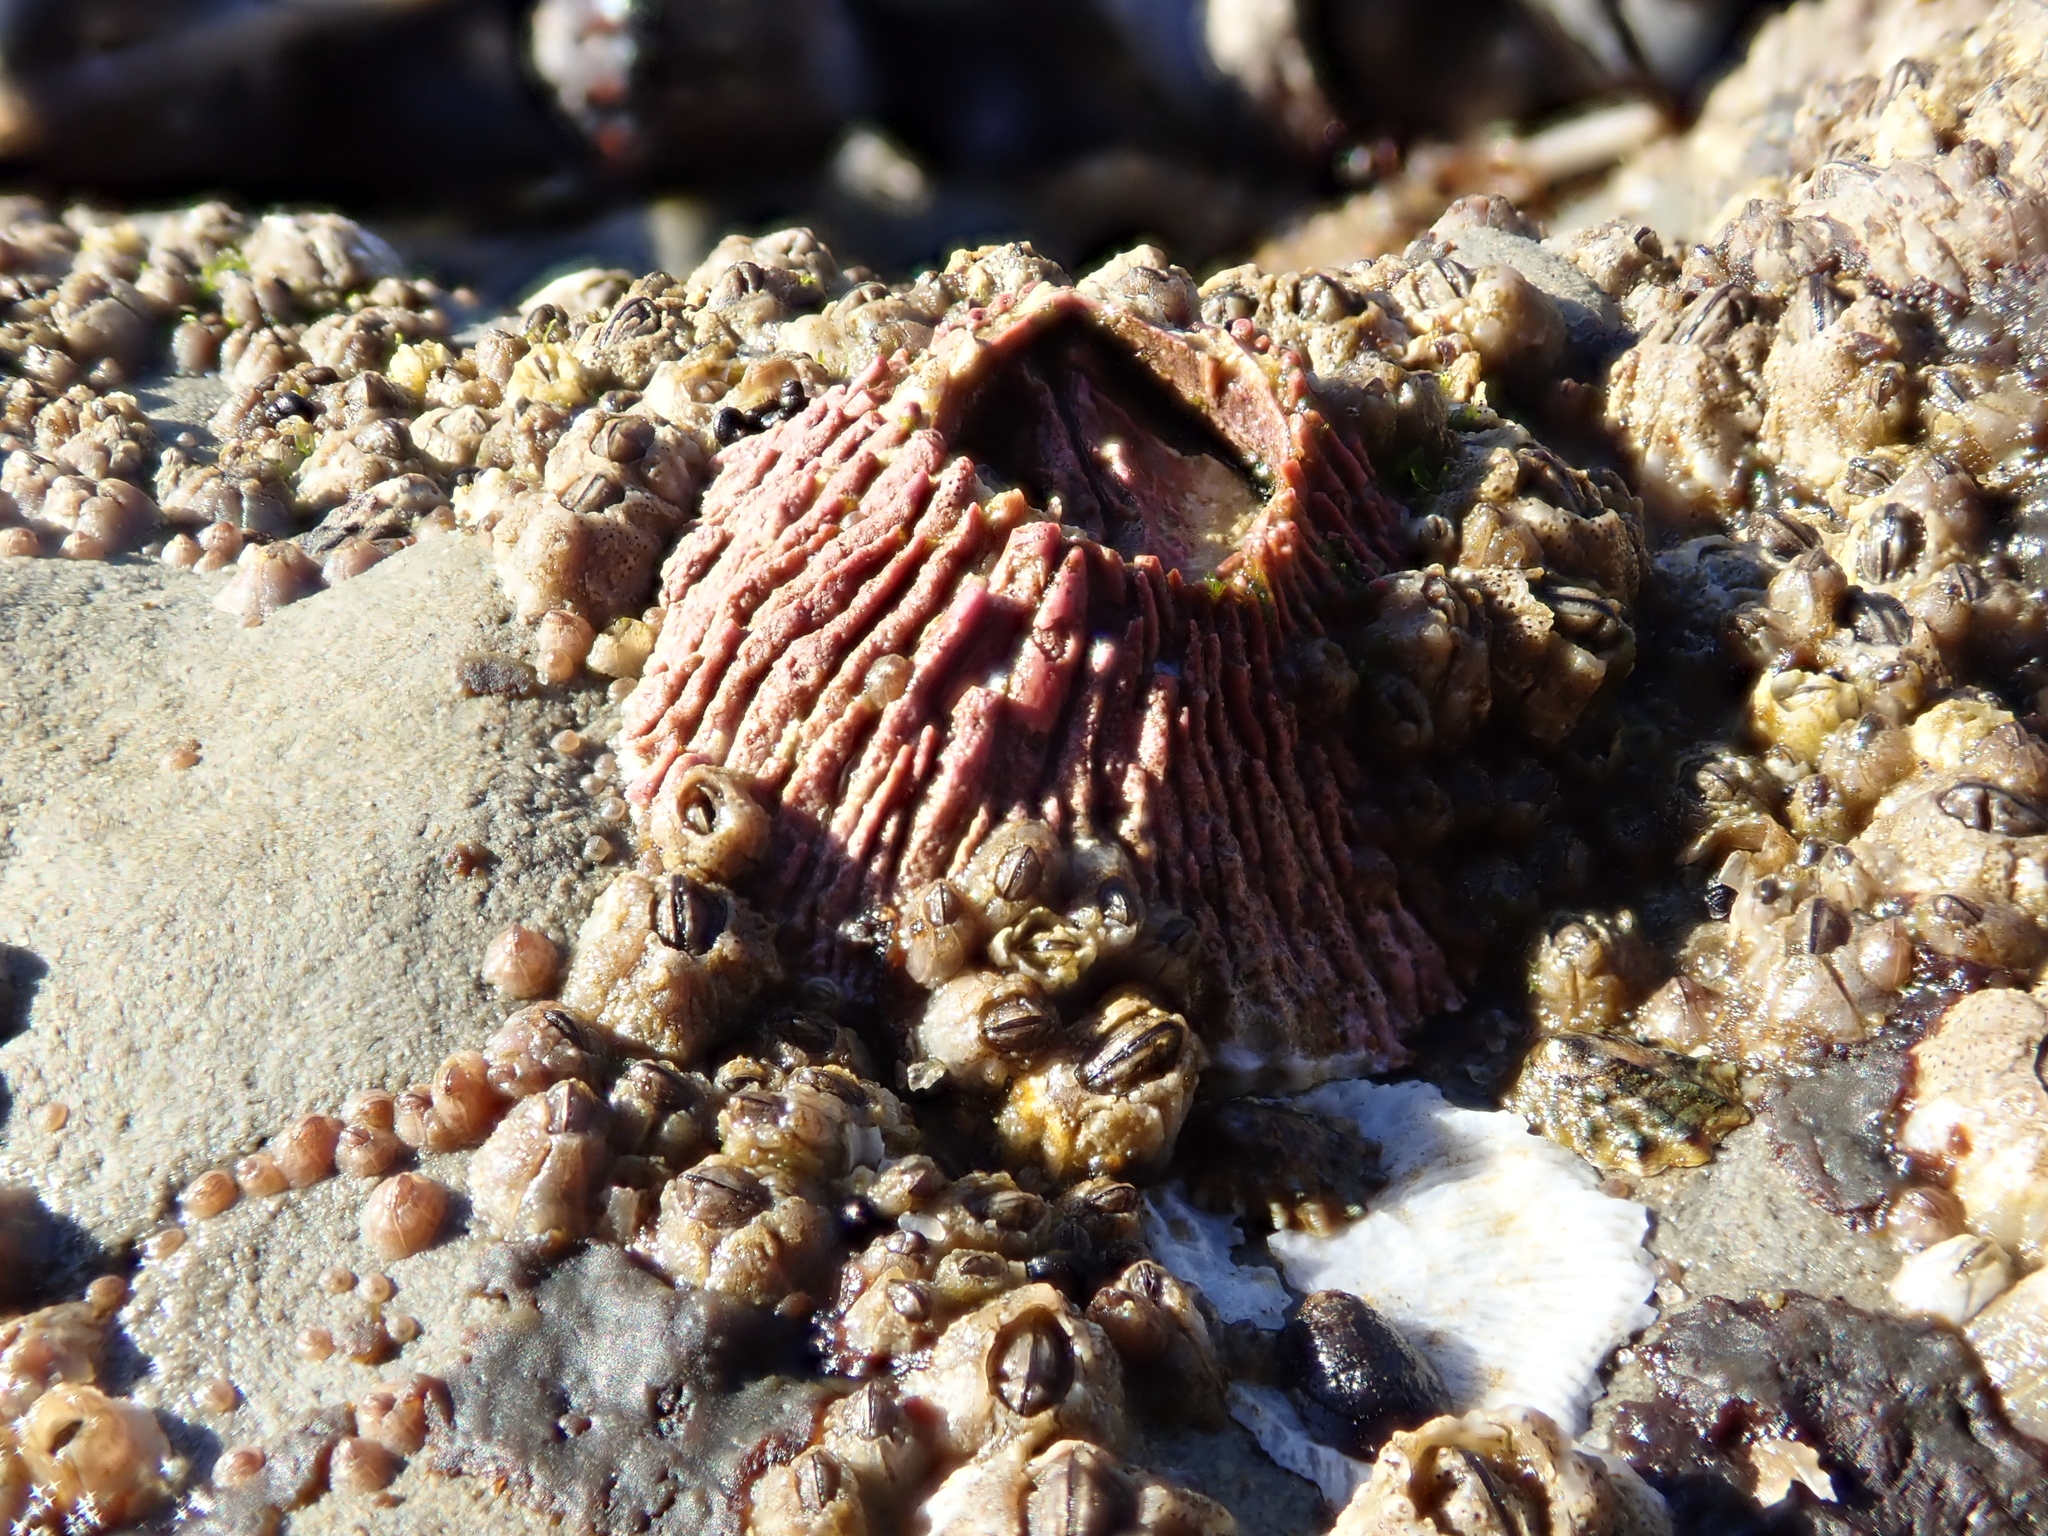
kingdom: Animalia
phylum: Arthropoda
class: Maxillopoda
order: Sessilia
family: Tetraclitidae
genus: Tetraclita
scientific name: Tetraclita rubescens
